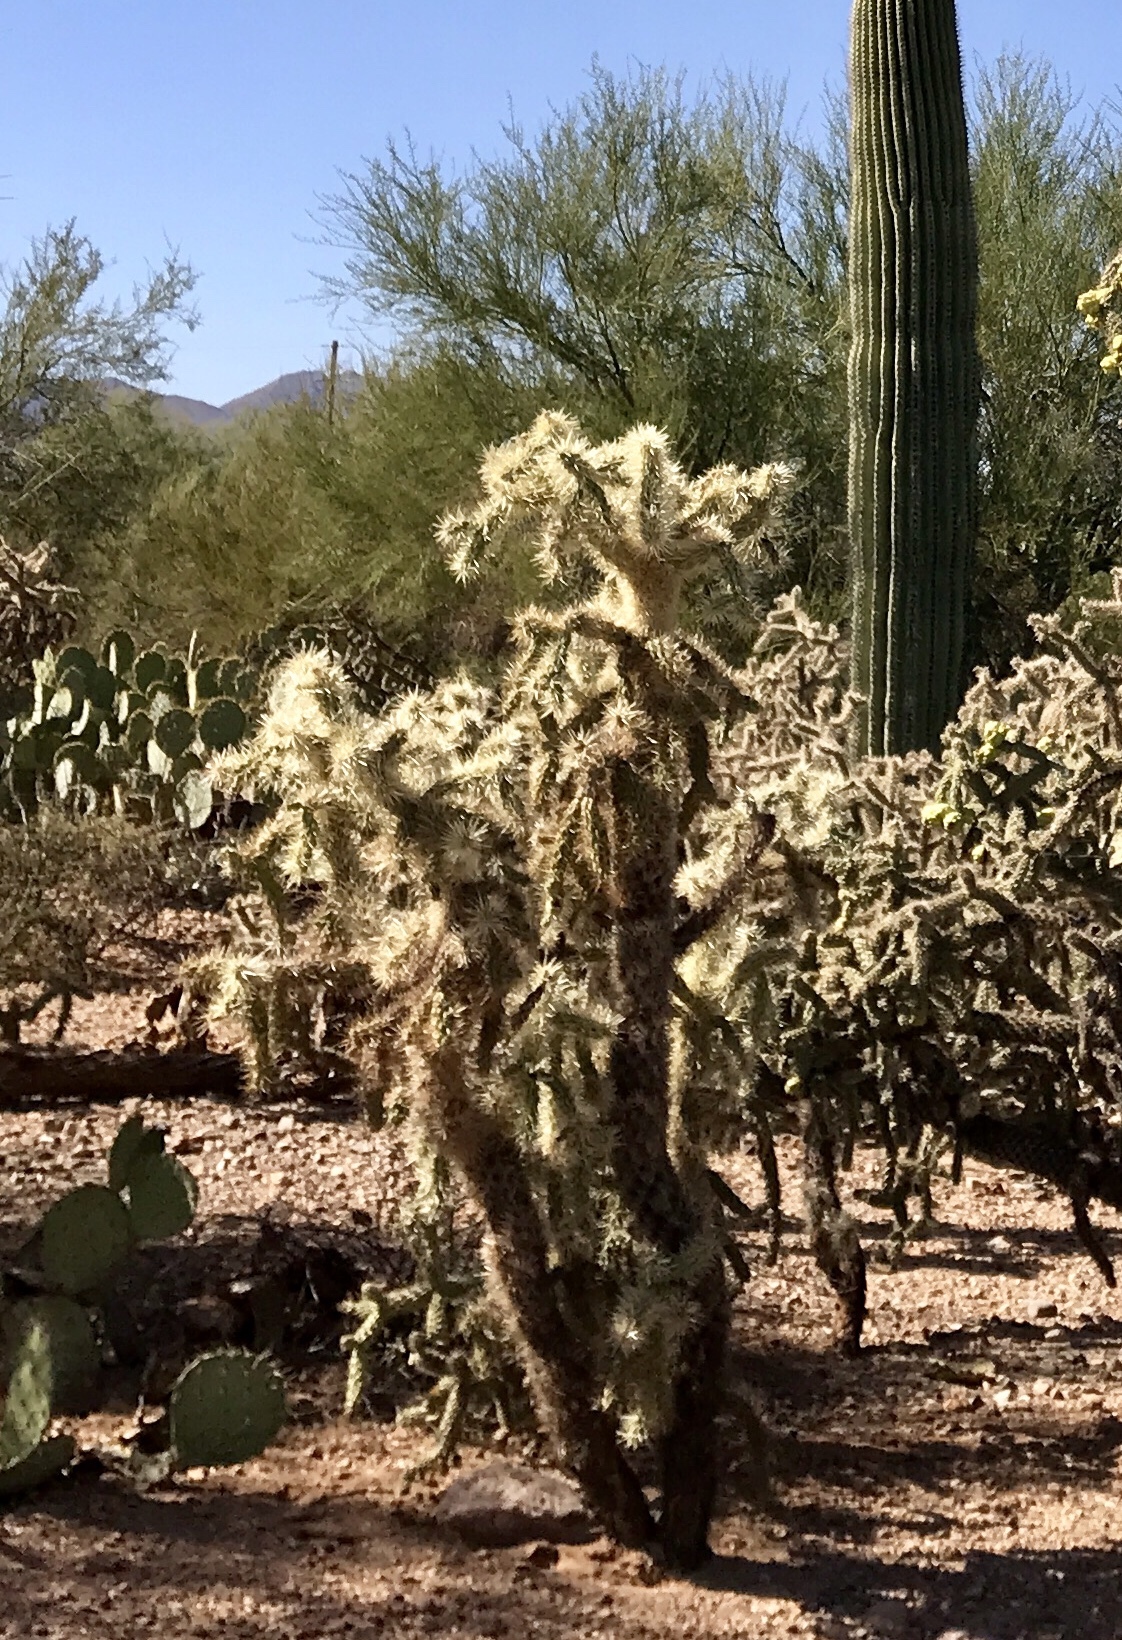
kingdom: Plantae
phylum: Tracheophyta
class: Magnoliopsida
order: Caryophyllales
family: Cactaceae
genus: Cylindropuntia
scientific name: Cylindropuntia fulgida
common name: Jumping cholla
